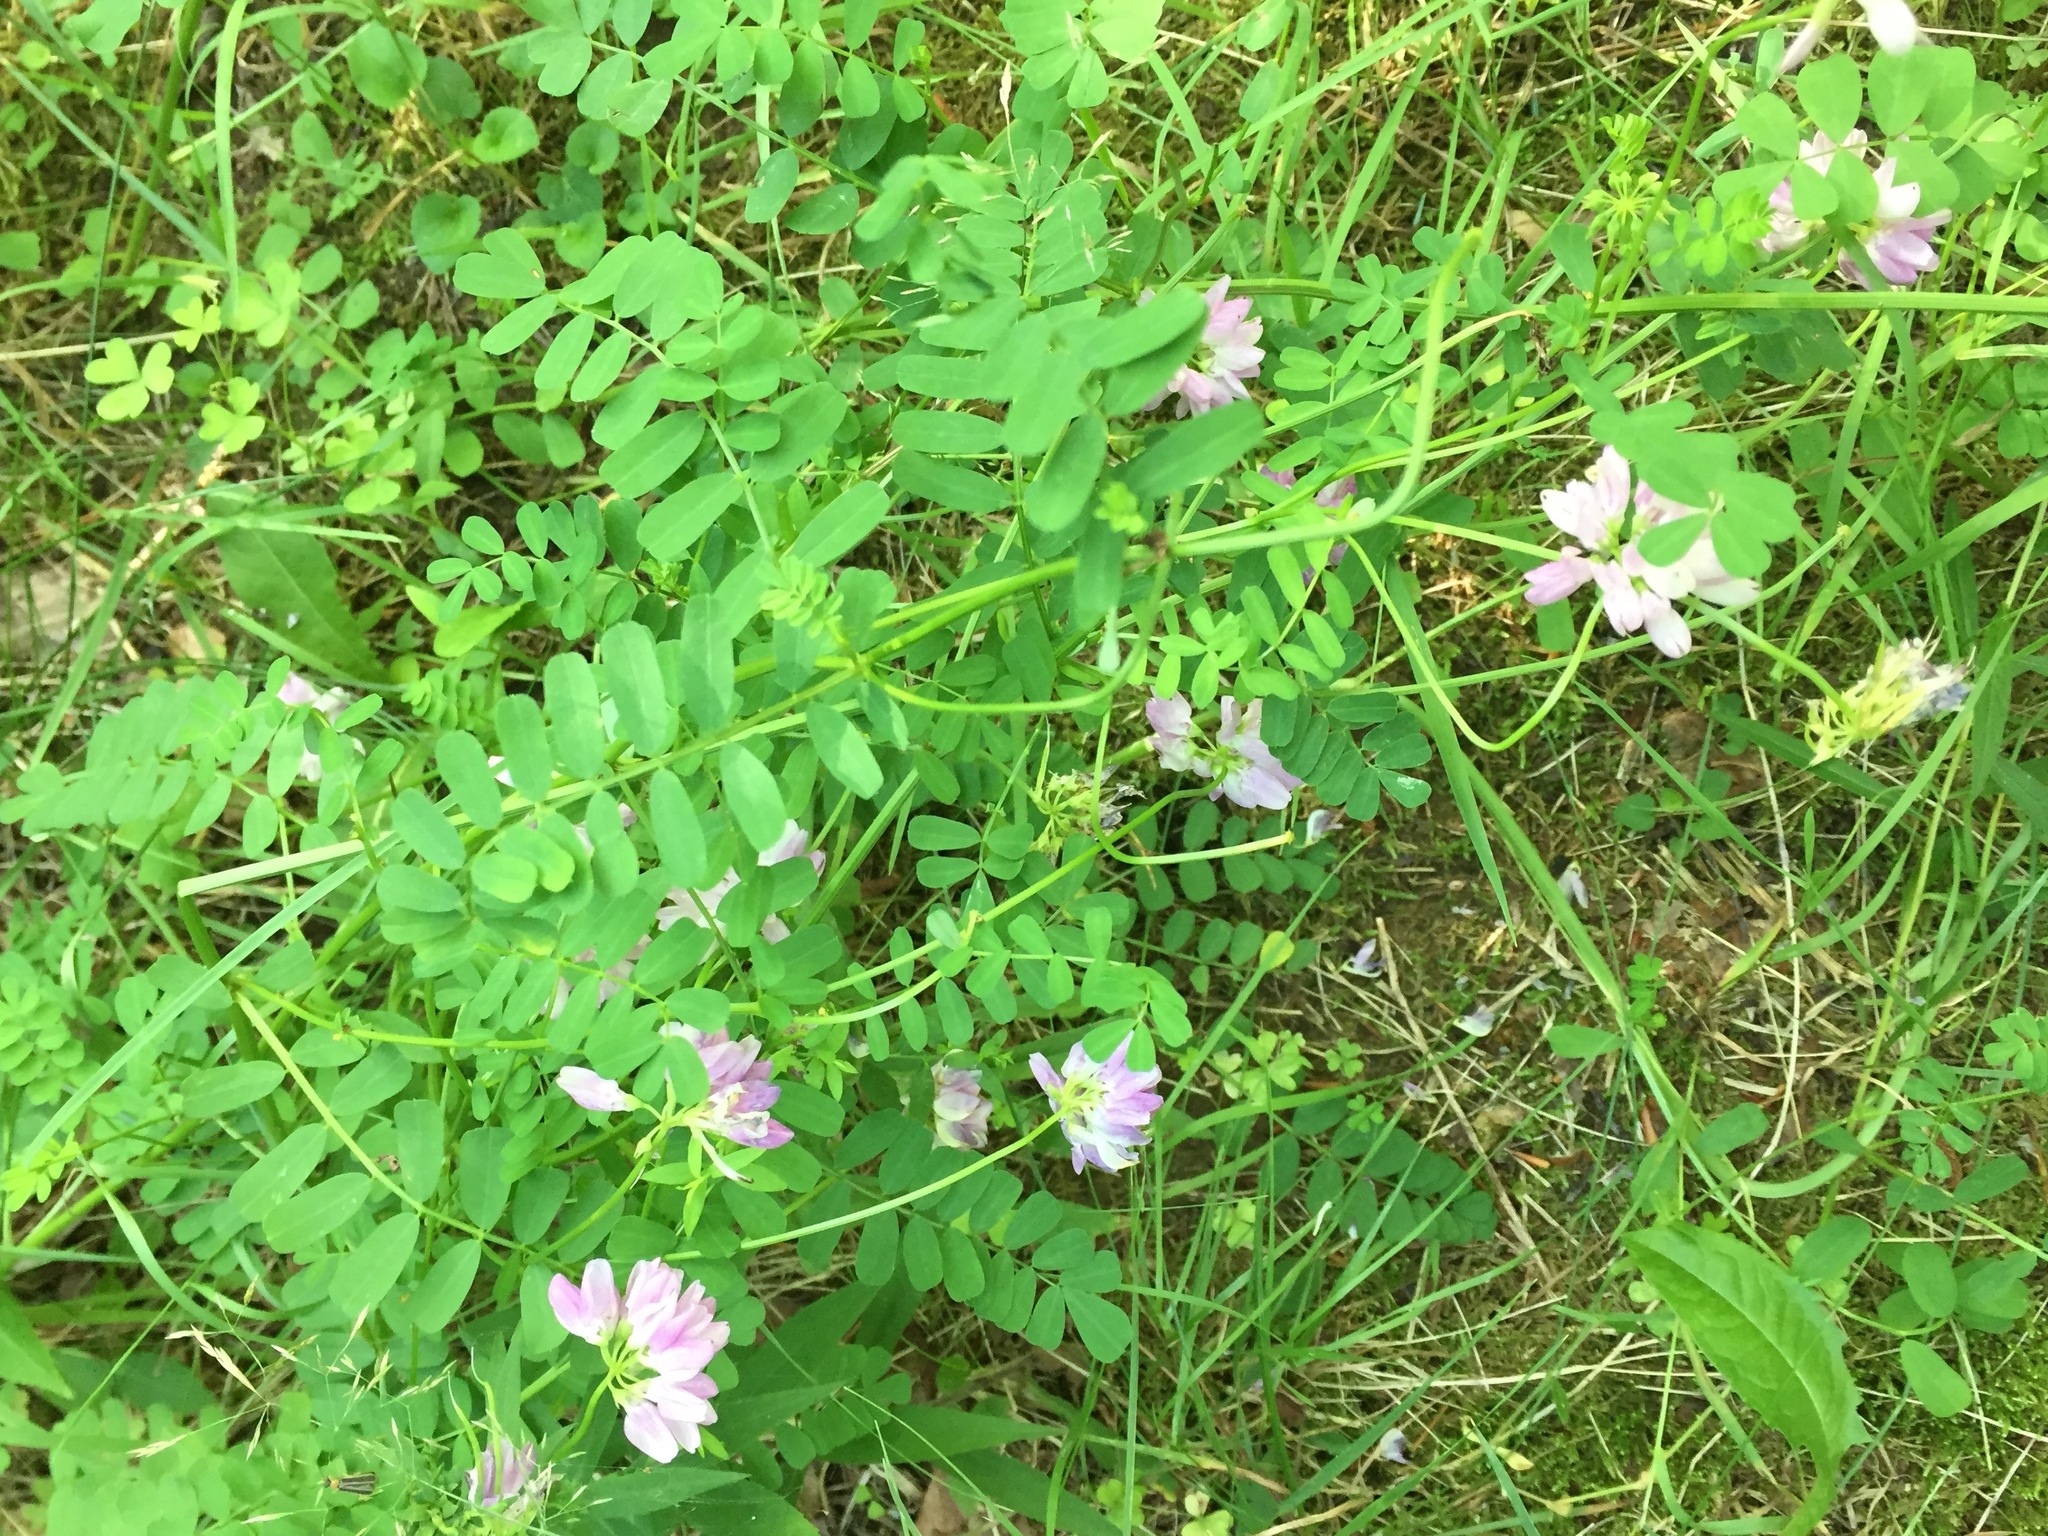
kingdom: Plantae
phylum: Tracheophyta
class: Magnoliopsida
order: Fabales
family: Fabaceae
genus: Coronilla
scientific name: Coronilla varia
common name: Crownvetch
